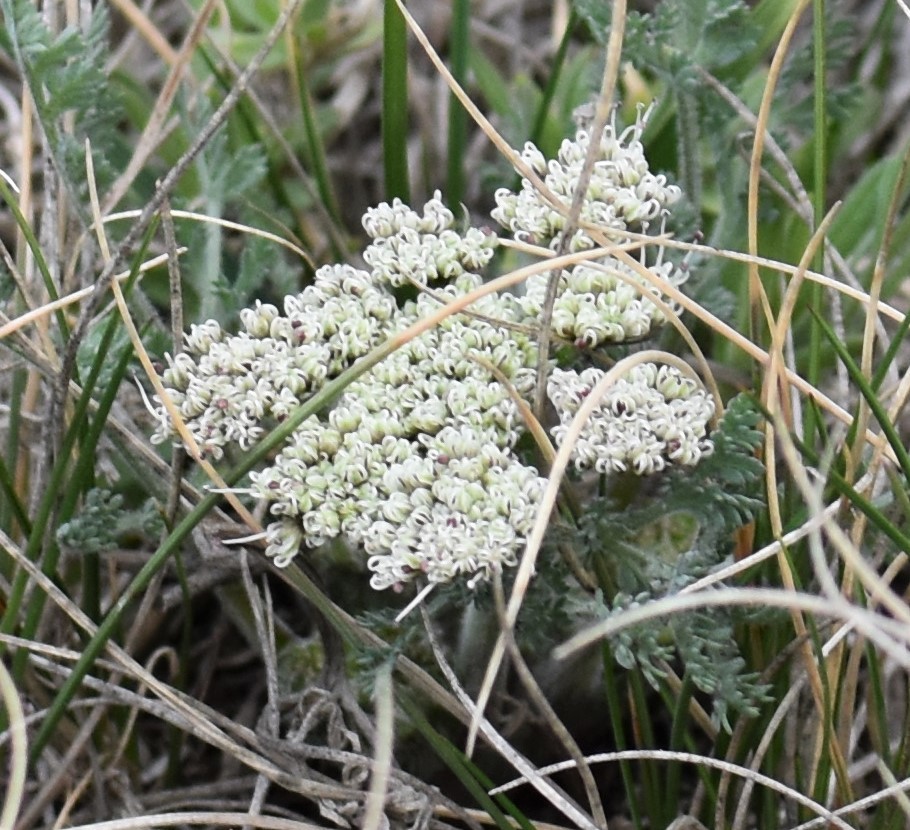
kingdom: Plantae
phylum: Tracheophyta
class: Magnoliopsida
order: Apiales
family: Apiaceae
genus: Lomatium
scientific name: Lomatium macrocarpum
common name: Big-seed biscuitroot
